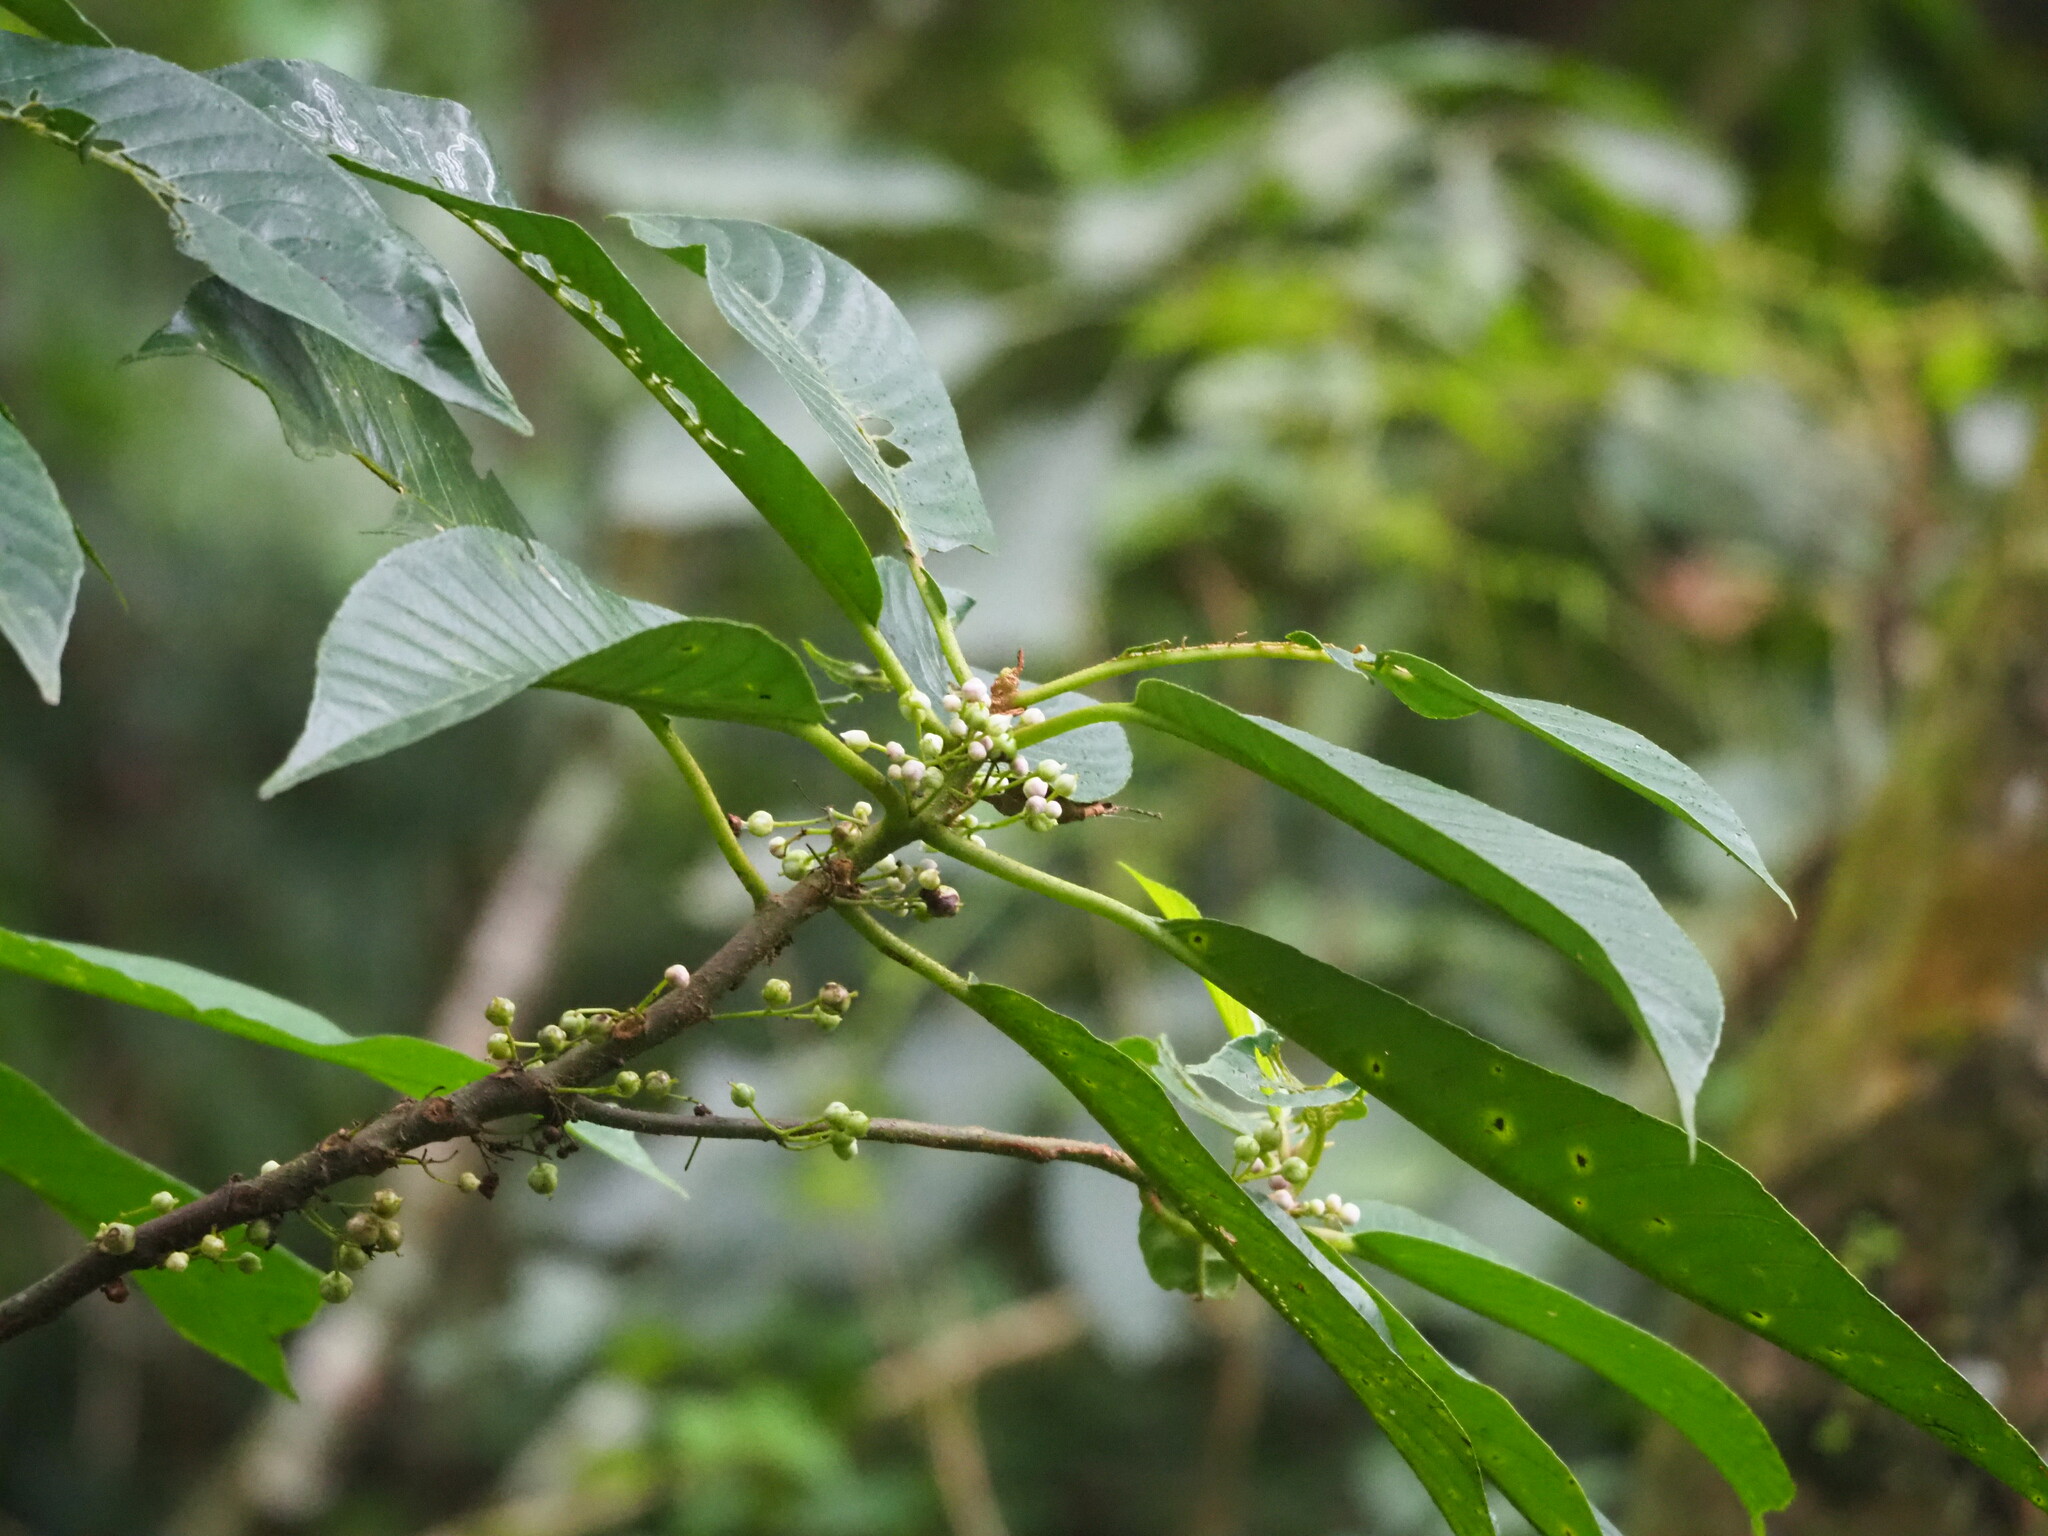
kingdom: Plantae
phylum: Tracheophyta
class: Magnoliopsida
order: Ericales
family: Actinidiaceae
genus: Saurauia
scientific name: Saurauia tristyla
